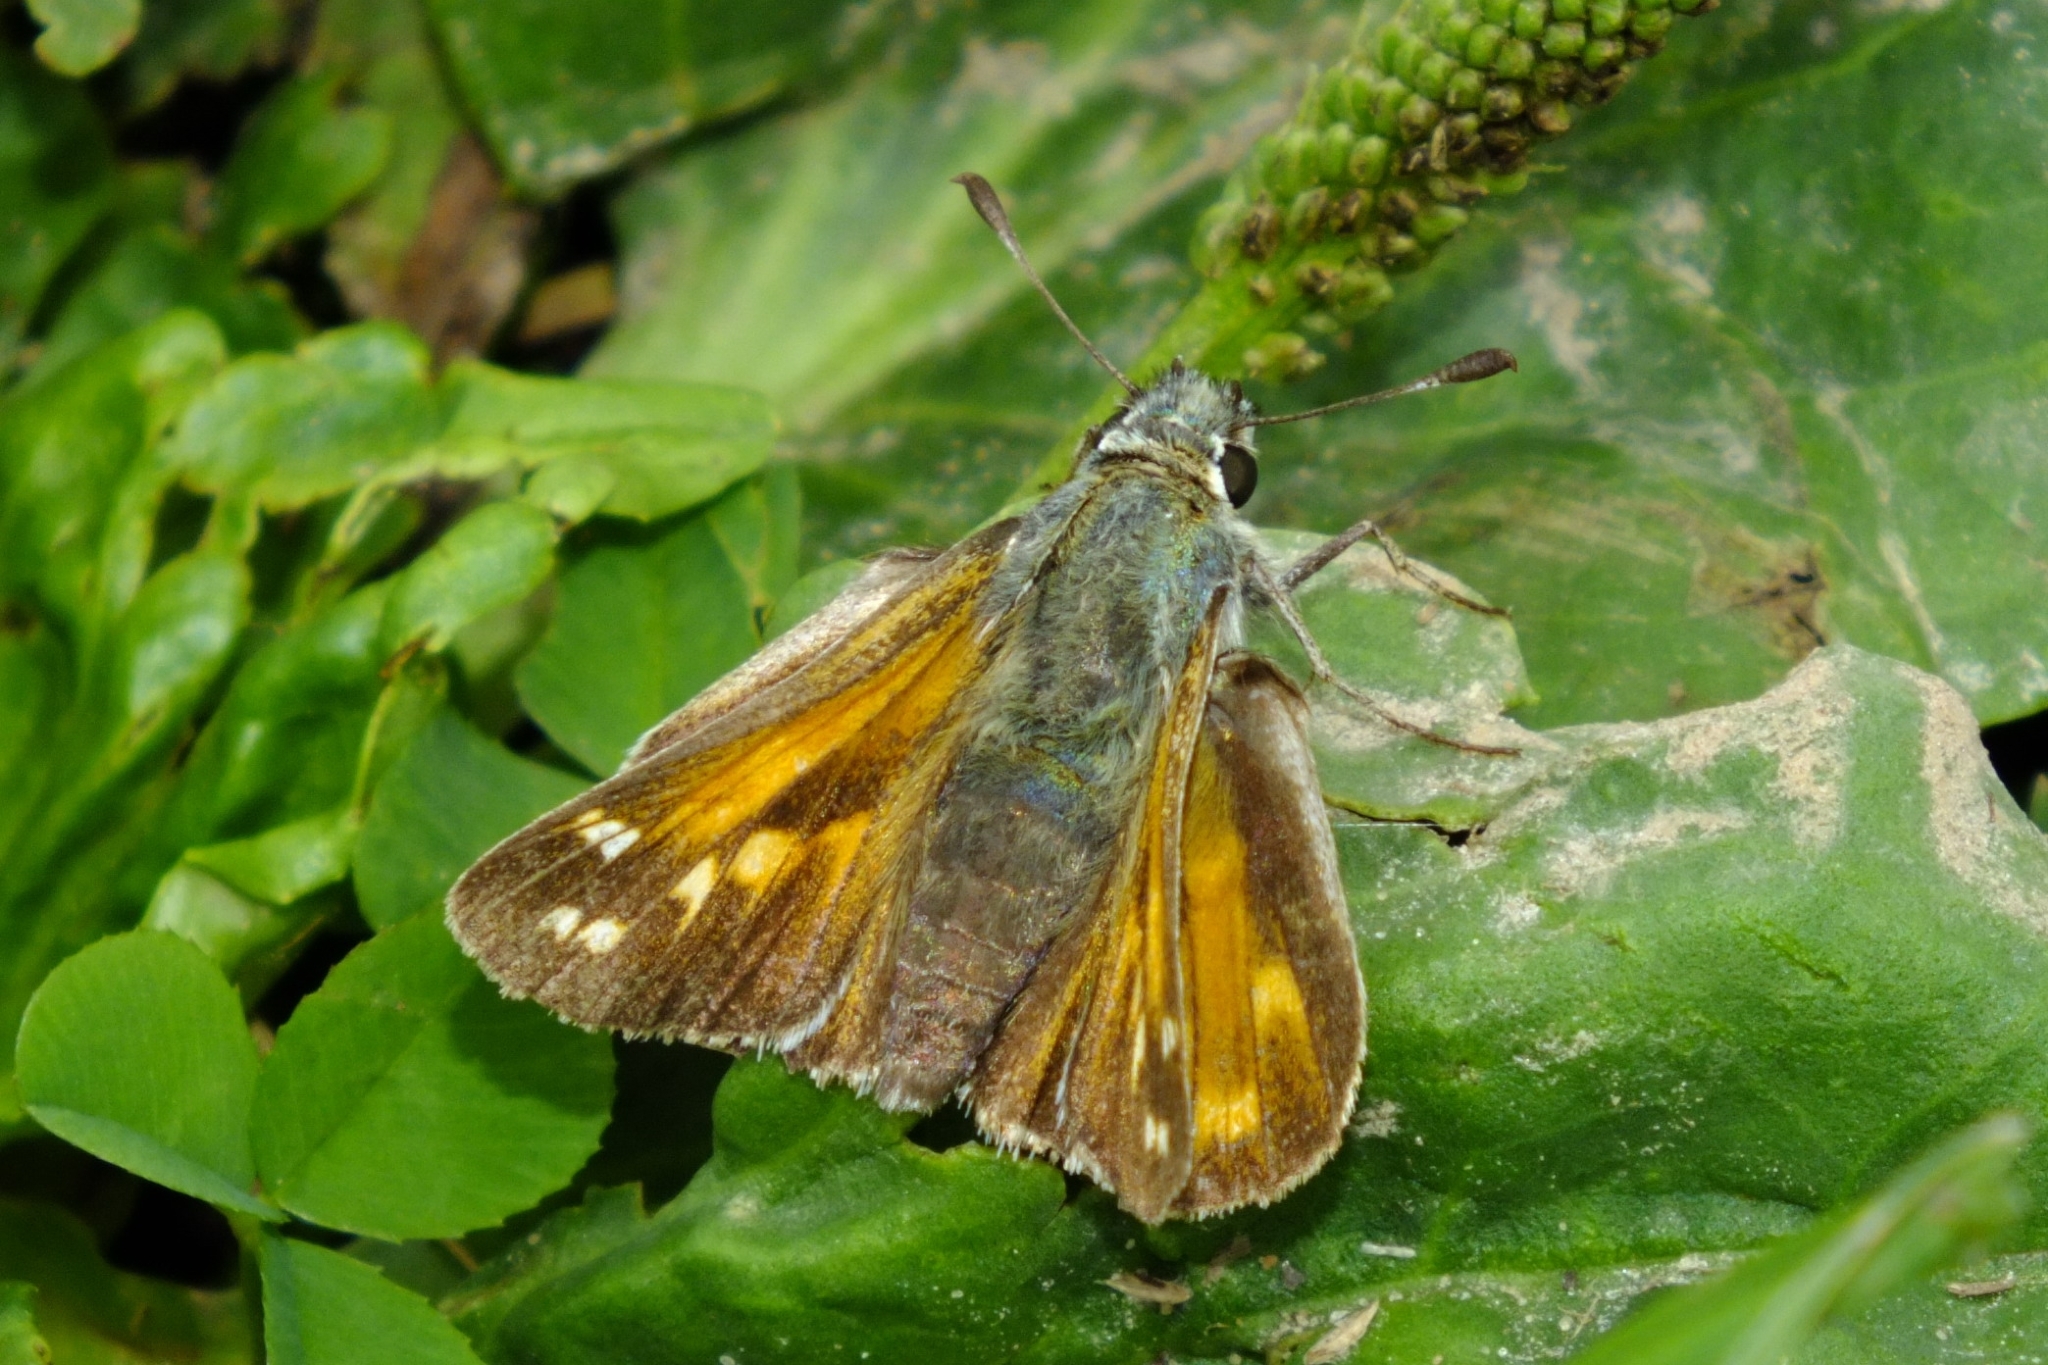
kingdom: Animalia
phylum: Arthropoda
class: Insecta
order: Lepidoptera
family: Hesperiidae
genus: Hesperia
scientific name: Hesperia comma
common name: Common branded skipper
